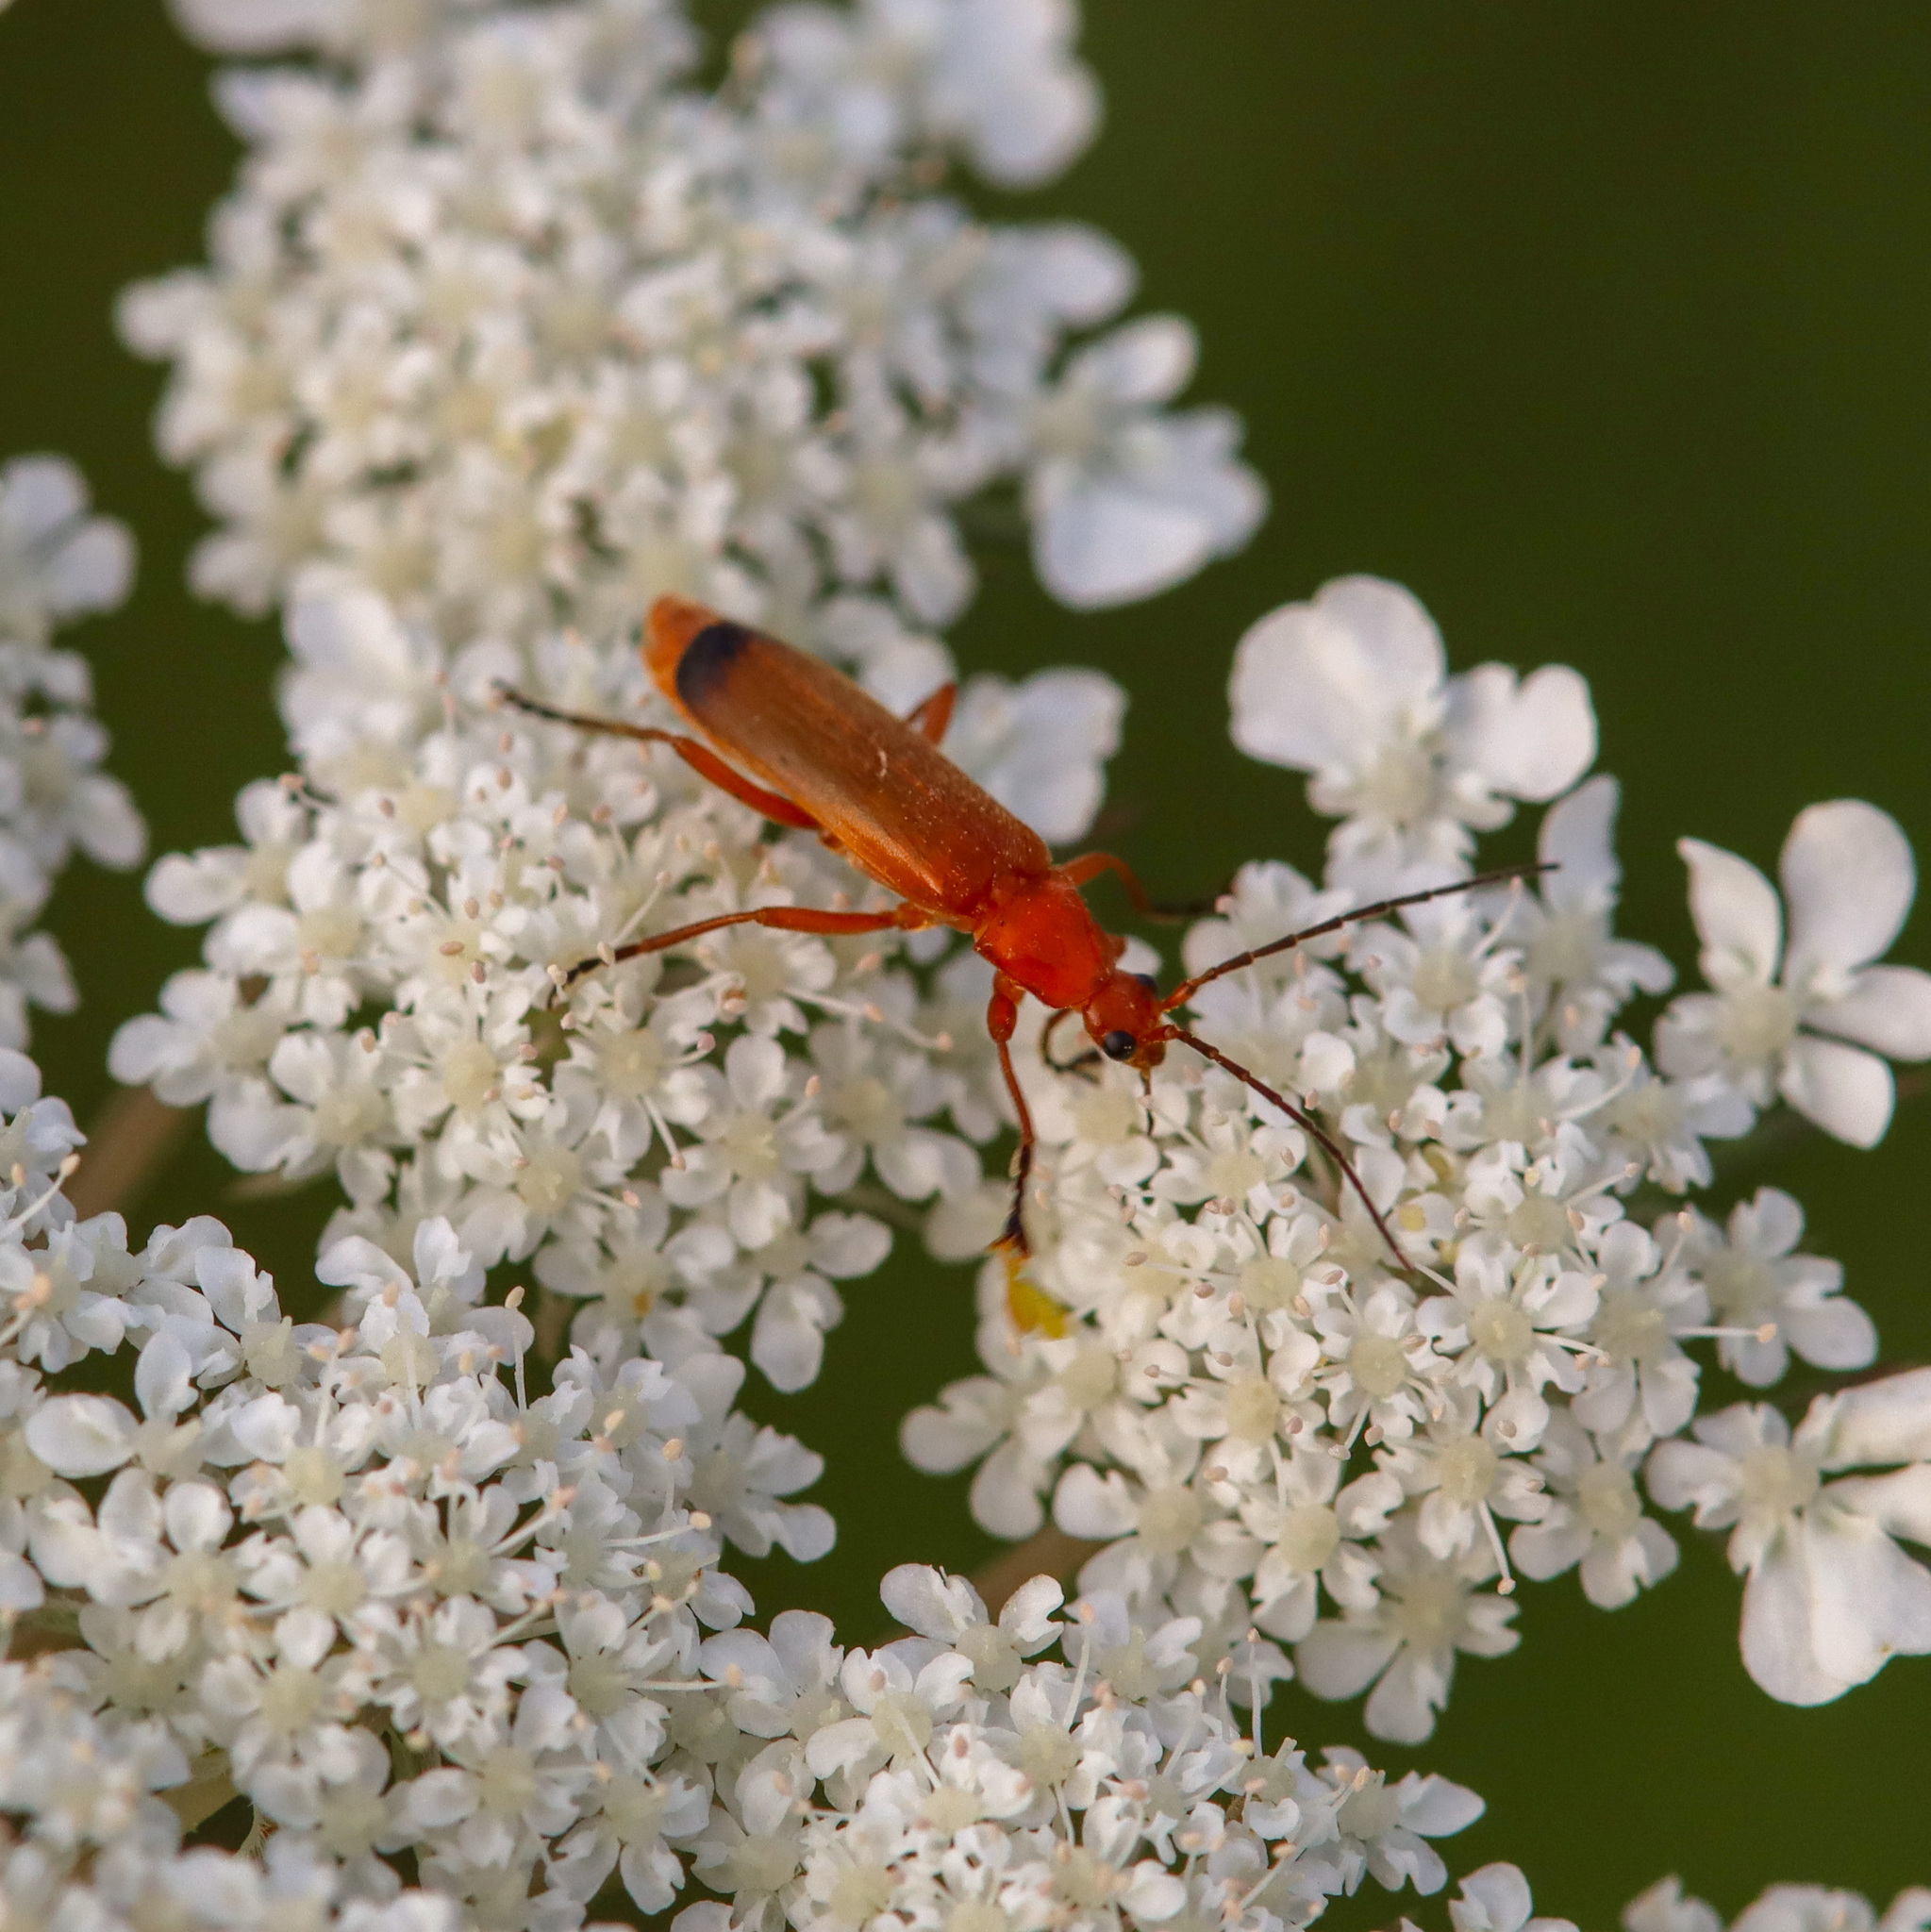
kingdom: Animalia
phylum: Arthropoda
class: Insecta
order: Coleoptera
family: Cantharidae
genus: Rhagonycha
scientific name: Rhagonycha fulva
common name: Common red soldier beetle
